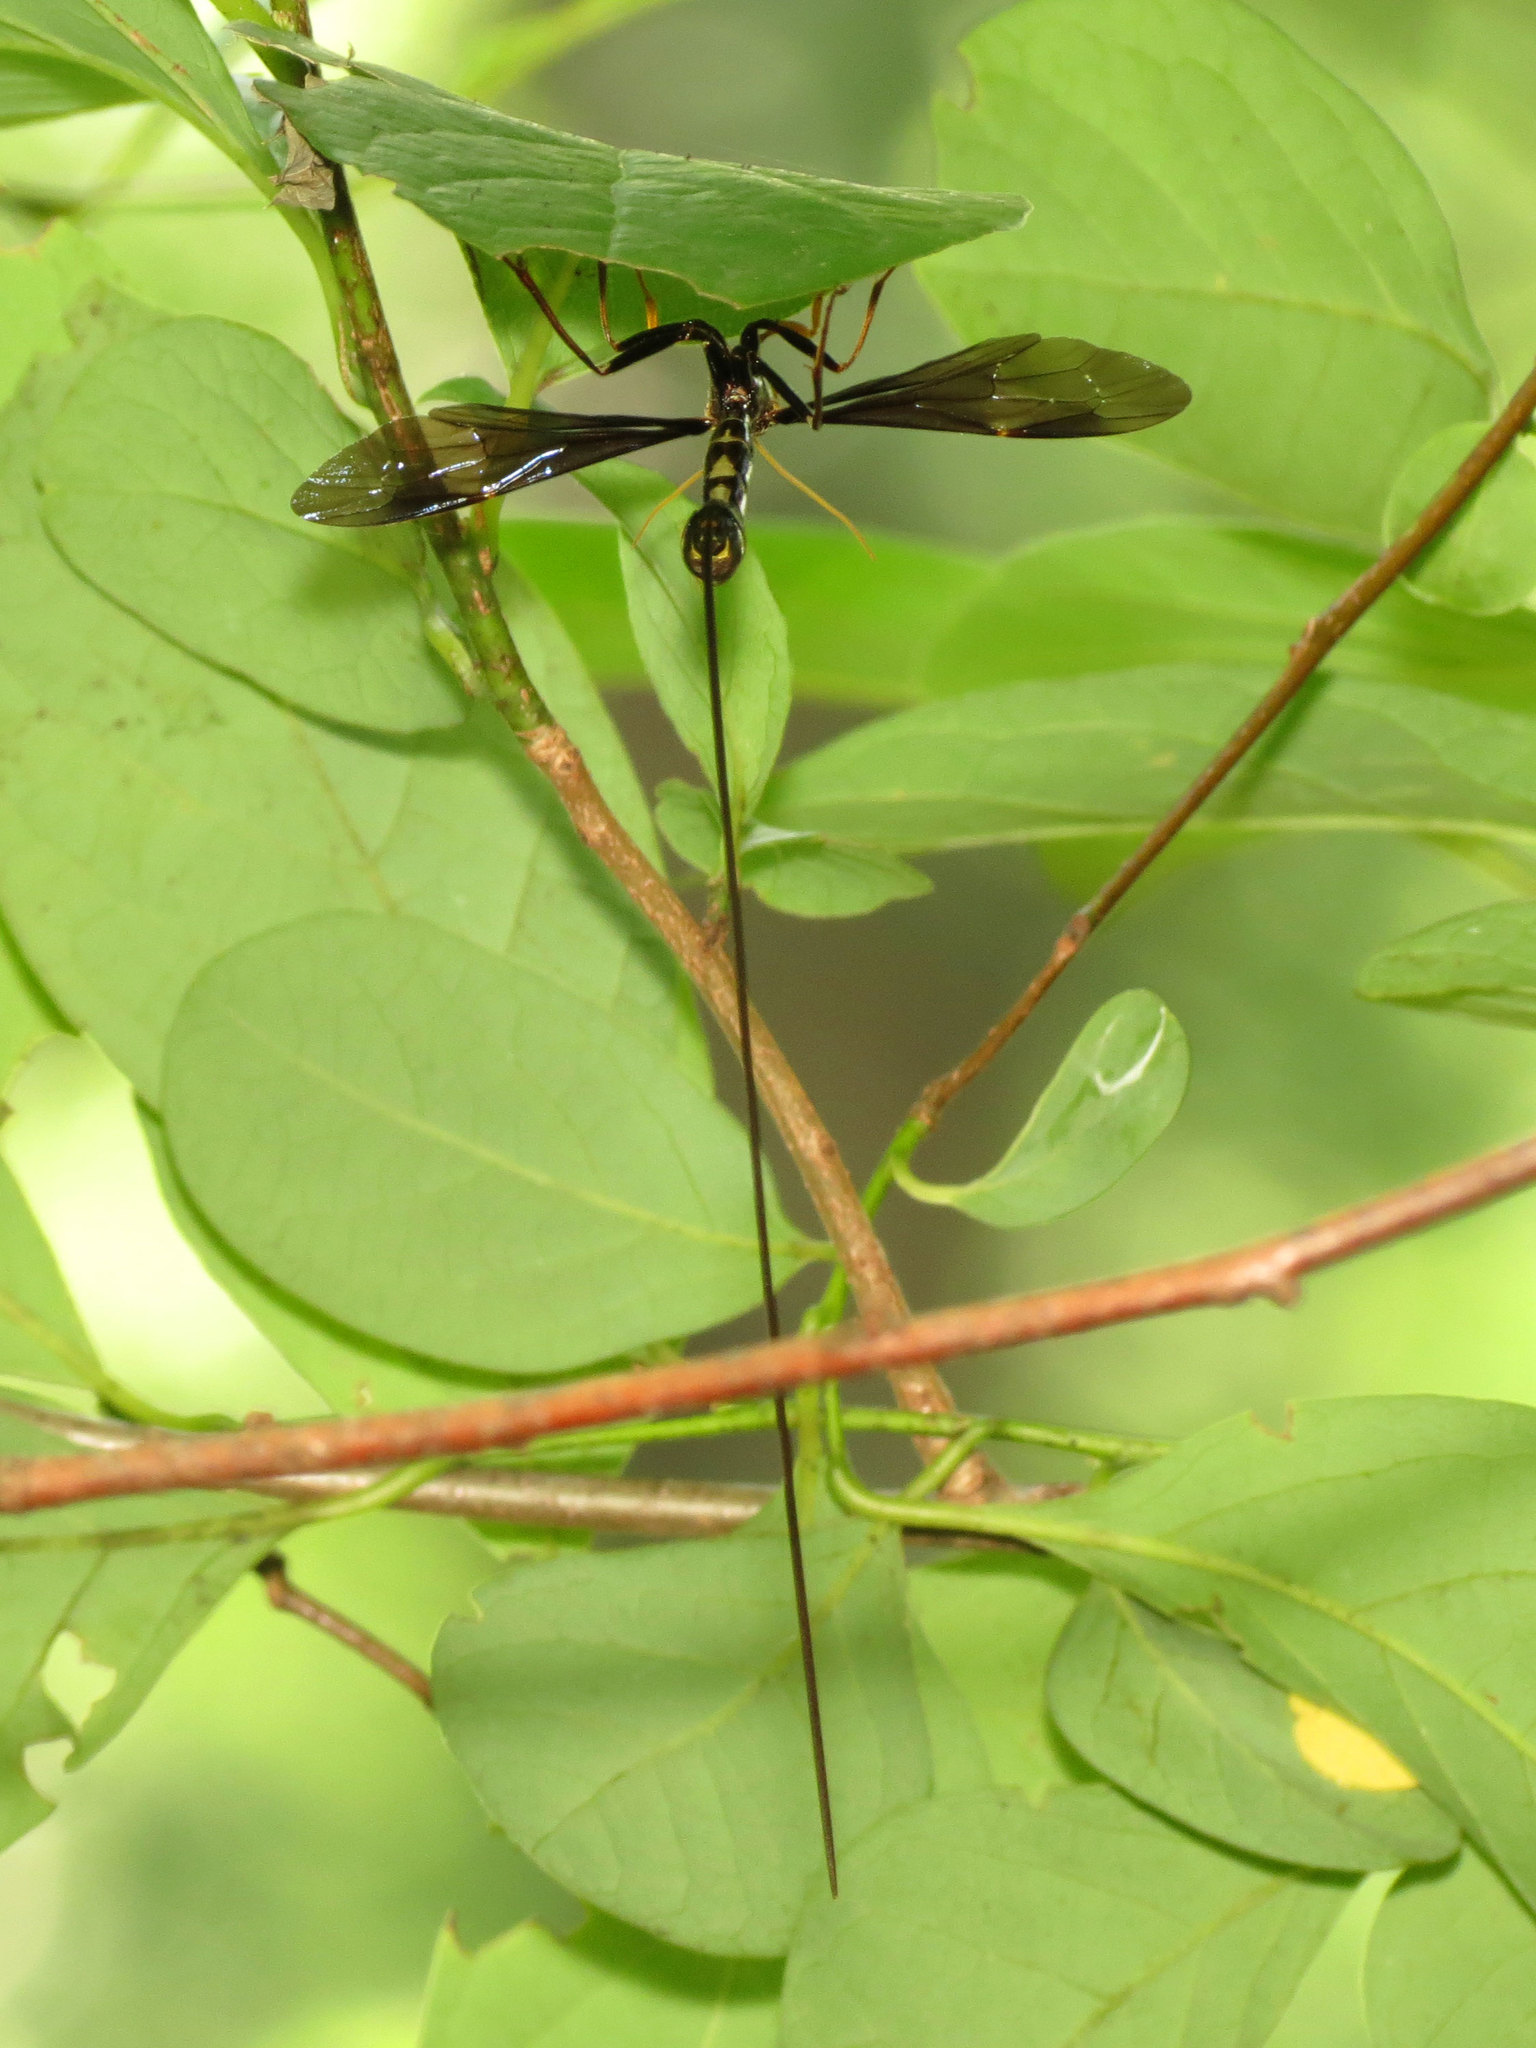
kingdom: Animalia
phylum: Arthropoda
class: Insecta
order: Hymenoptera
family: Ichneumonidae
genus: Megarhyssa
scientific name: Megarhyssa atrata
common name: Black giant ichneumonid wasp
